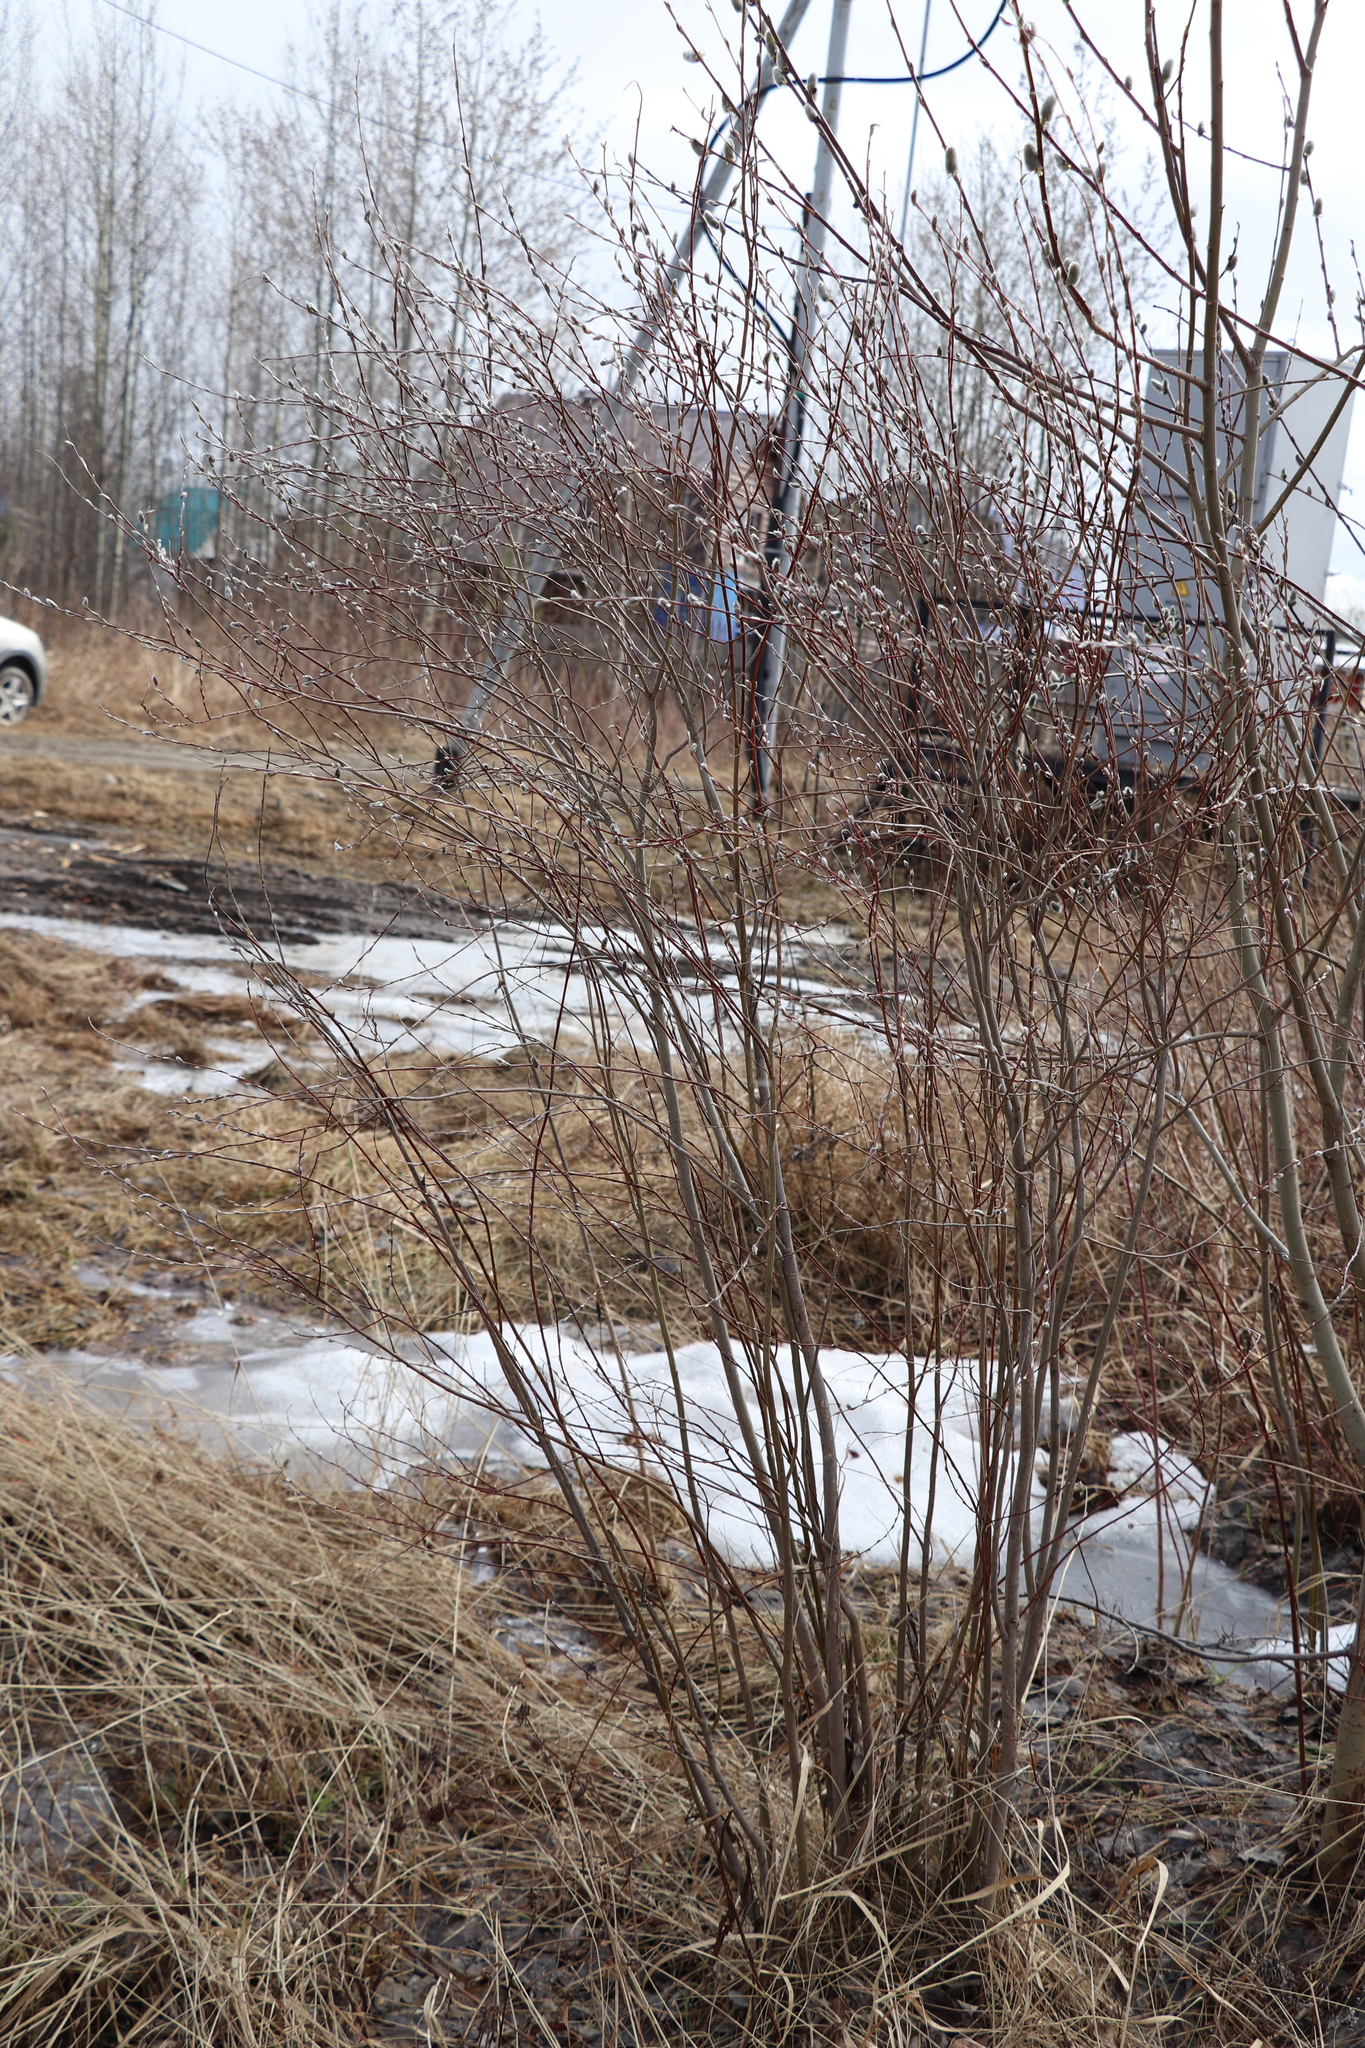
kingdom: Plantae
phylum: Tracheophyta
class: Magnoliopsida
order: Malpighiales
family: Salicaceae
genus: Salix
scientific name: Salix rosmarinifolia
